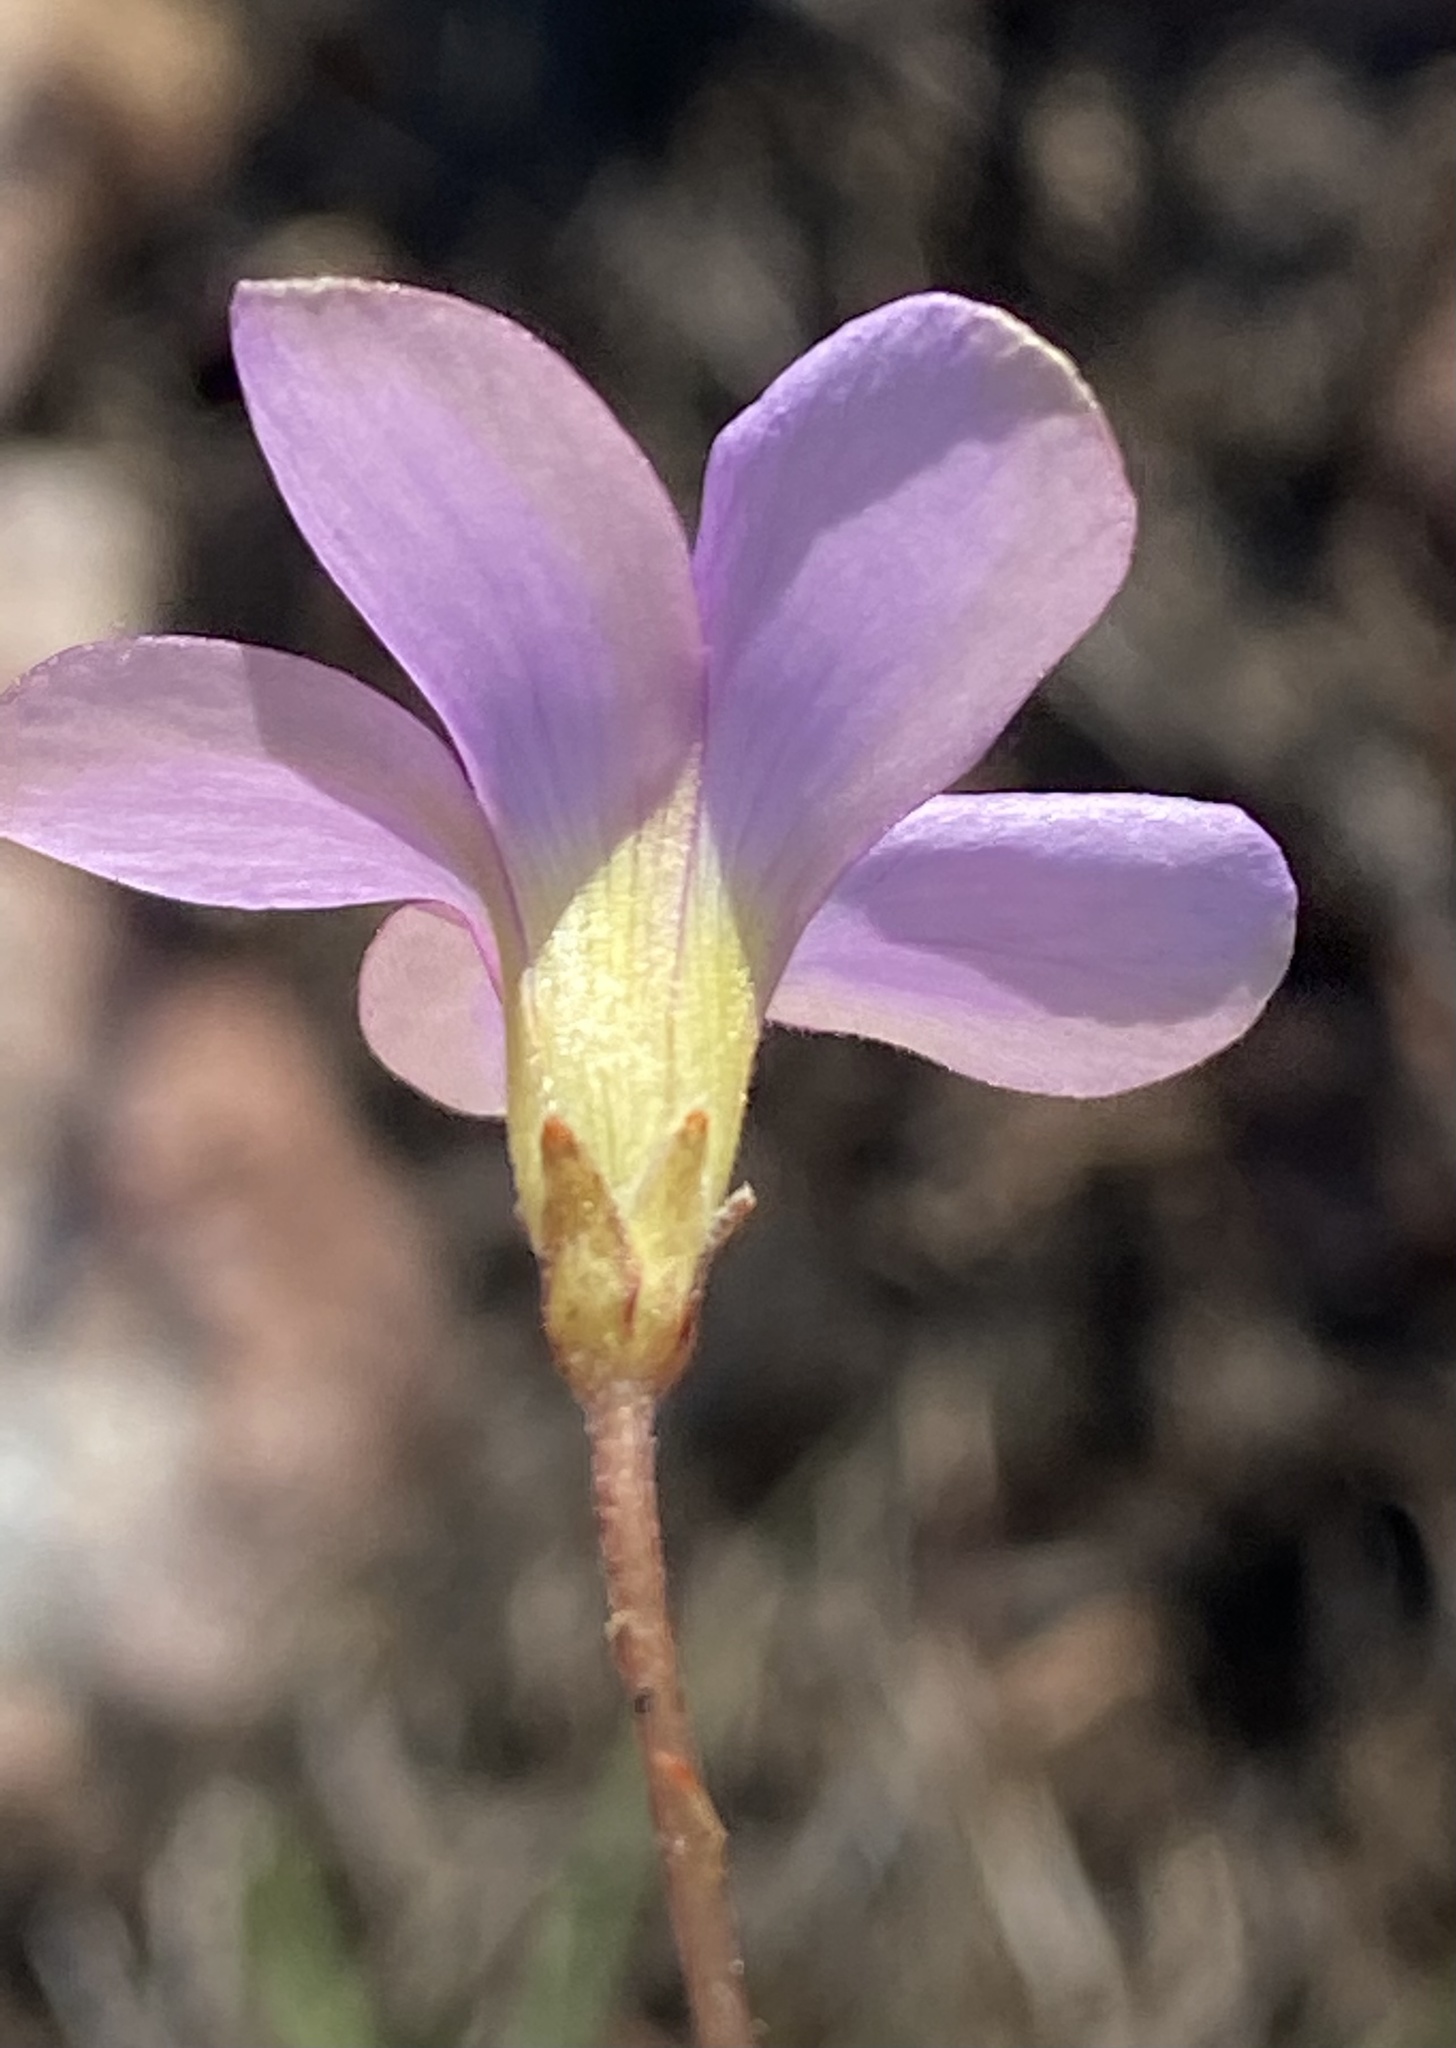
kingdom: Plantae
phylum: Tracheophyta
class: Magnoliopsida
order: Oxalidales
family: Oxalidaceae
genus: Oxalis
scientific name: Oxalis polyphylla
